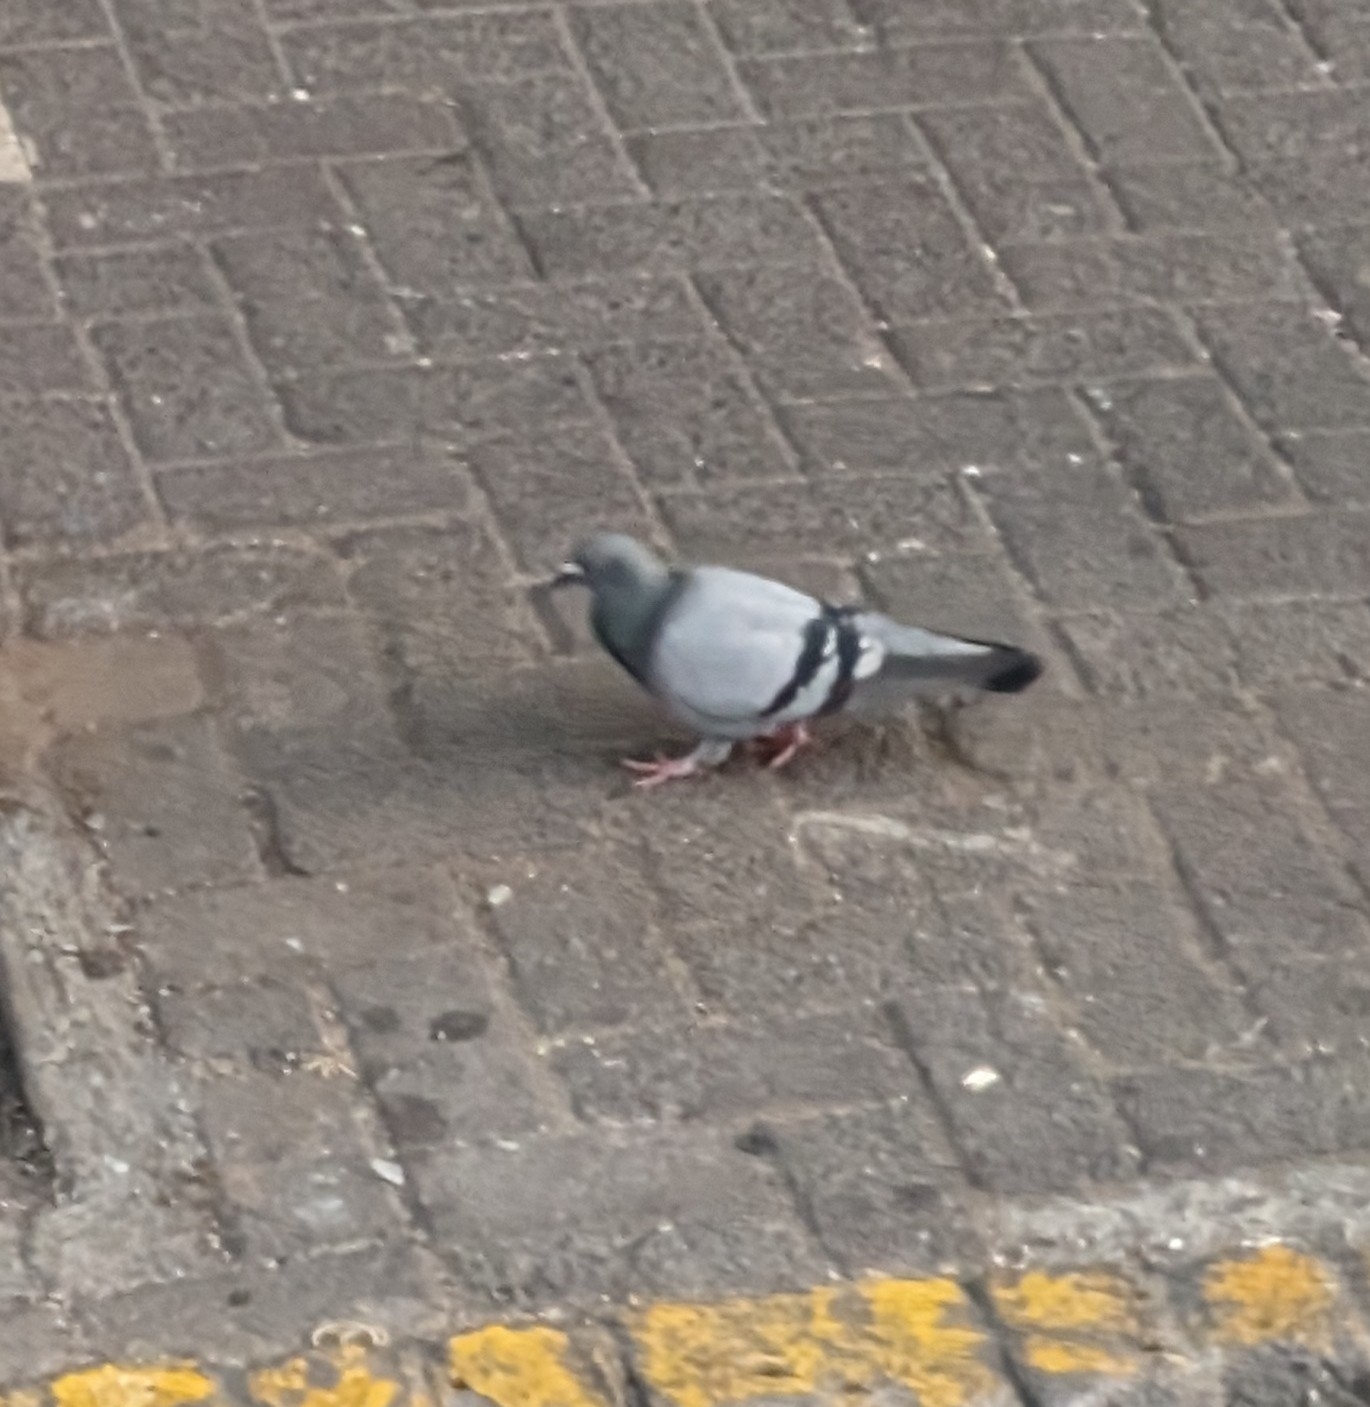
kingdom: Animalia
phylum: Chordata
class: Aves
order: Columbiformes
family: Columbidae
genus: Columba
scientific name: Columba livia
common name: Rock pigeon
